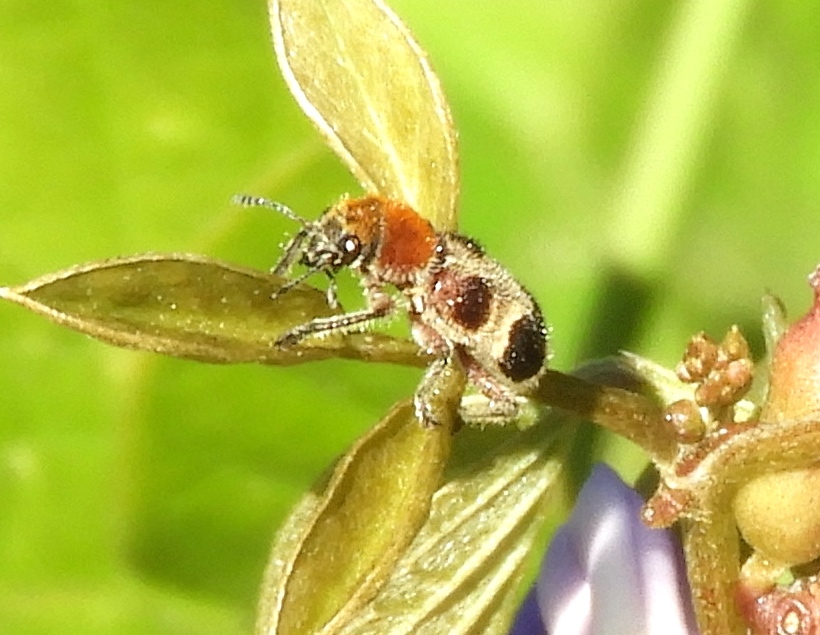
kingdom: Animalia
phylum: Arthropoda
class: Insecta
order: Coleoptera
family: Cleridae
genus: Enoclerus
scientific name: Enoclerus quadriguttatus
